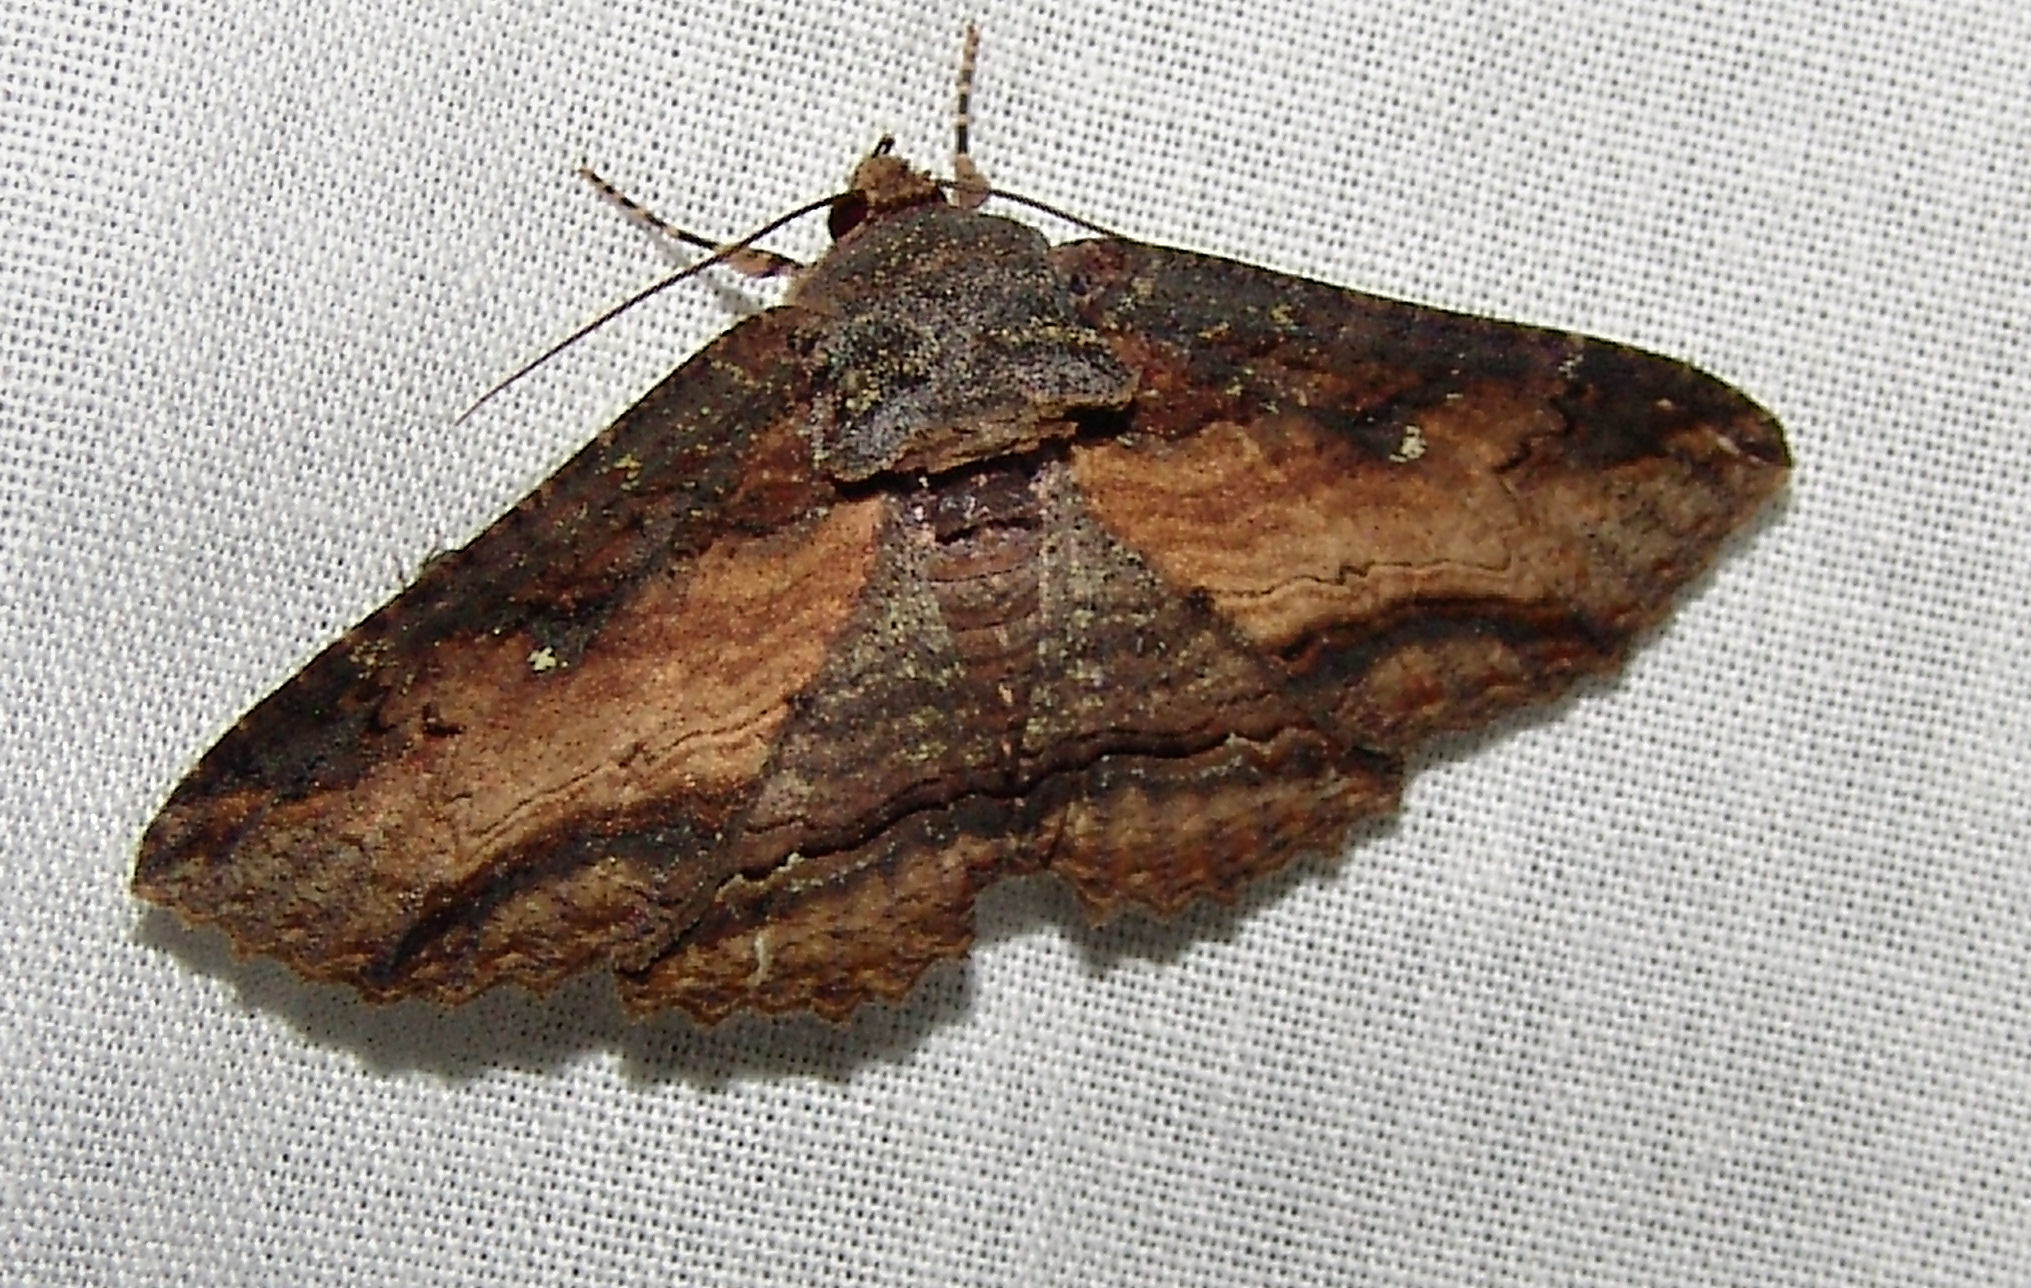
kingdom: Animalia
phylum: Arthropoda
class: Insecta
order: Lepidoptera
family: Erebidae
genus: Zale
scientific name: Zale lunata
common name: Lunate zale moth
